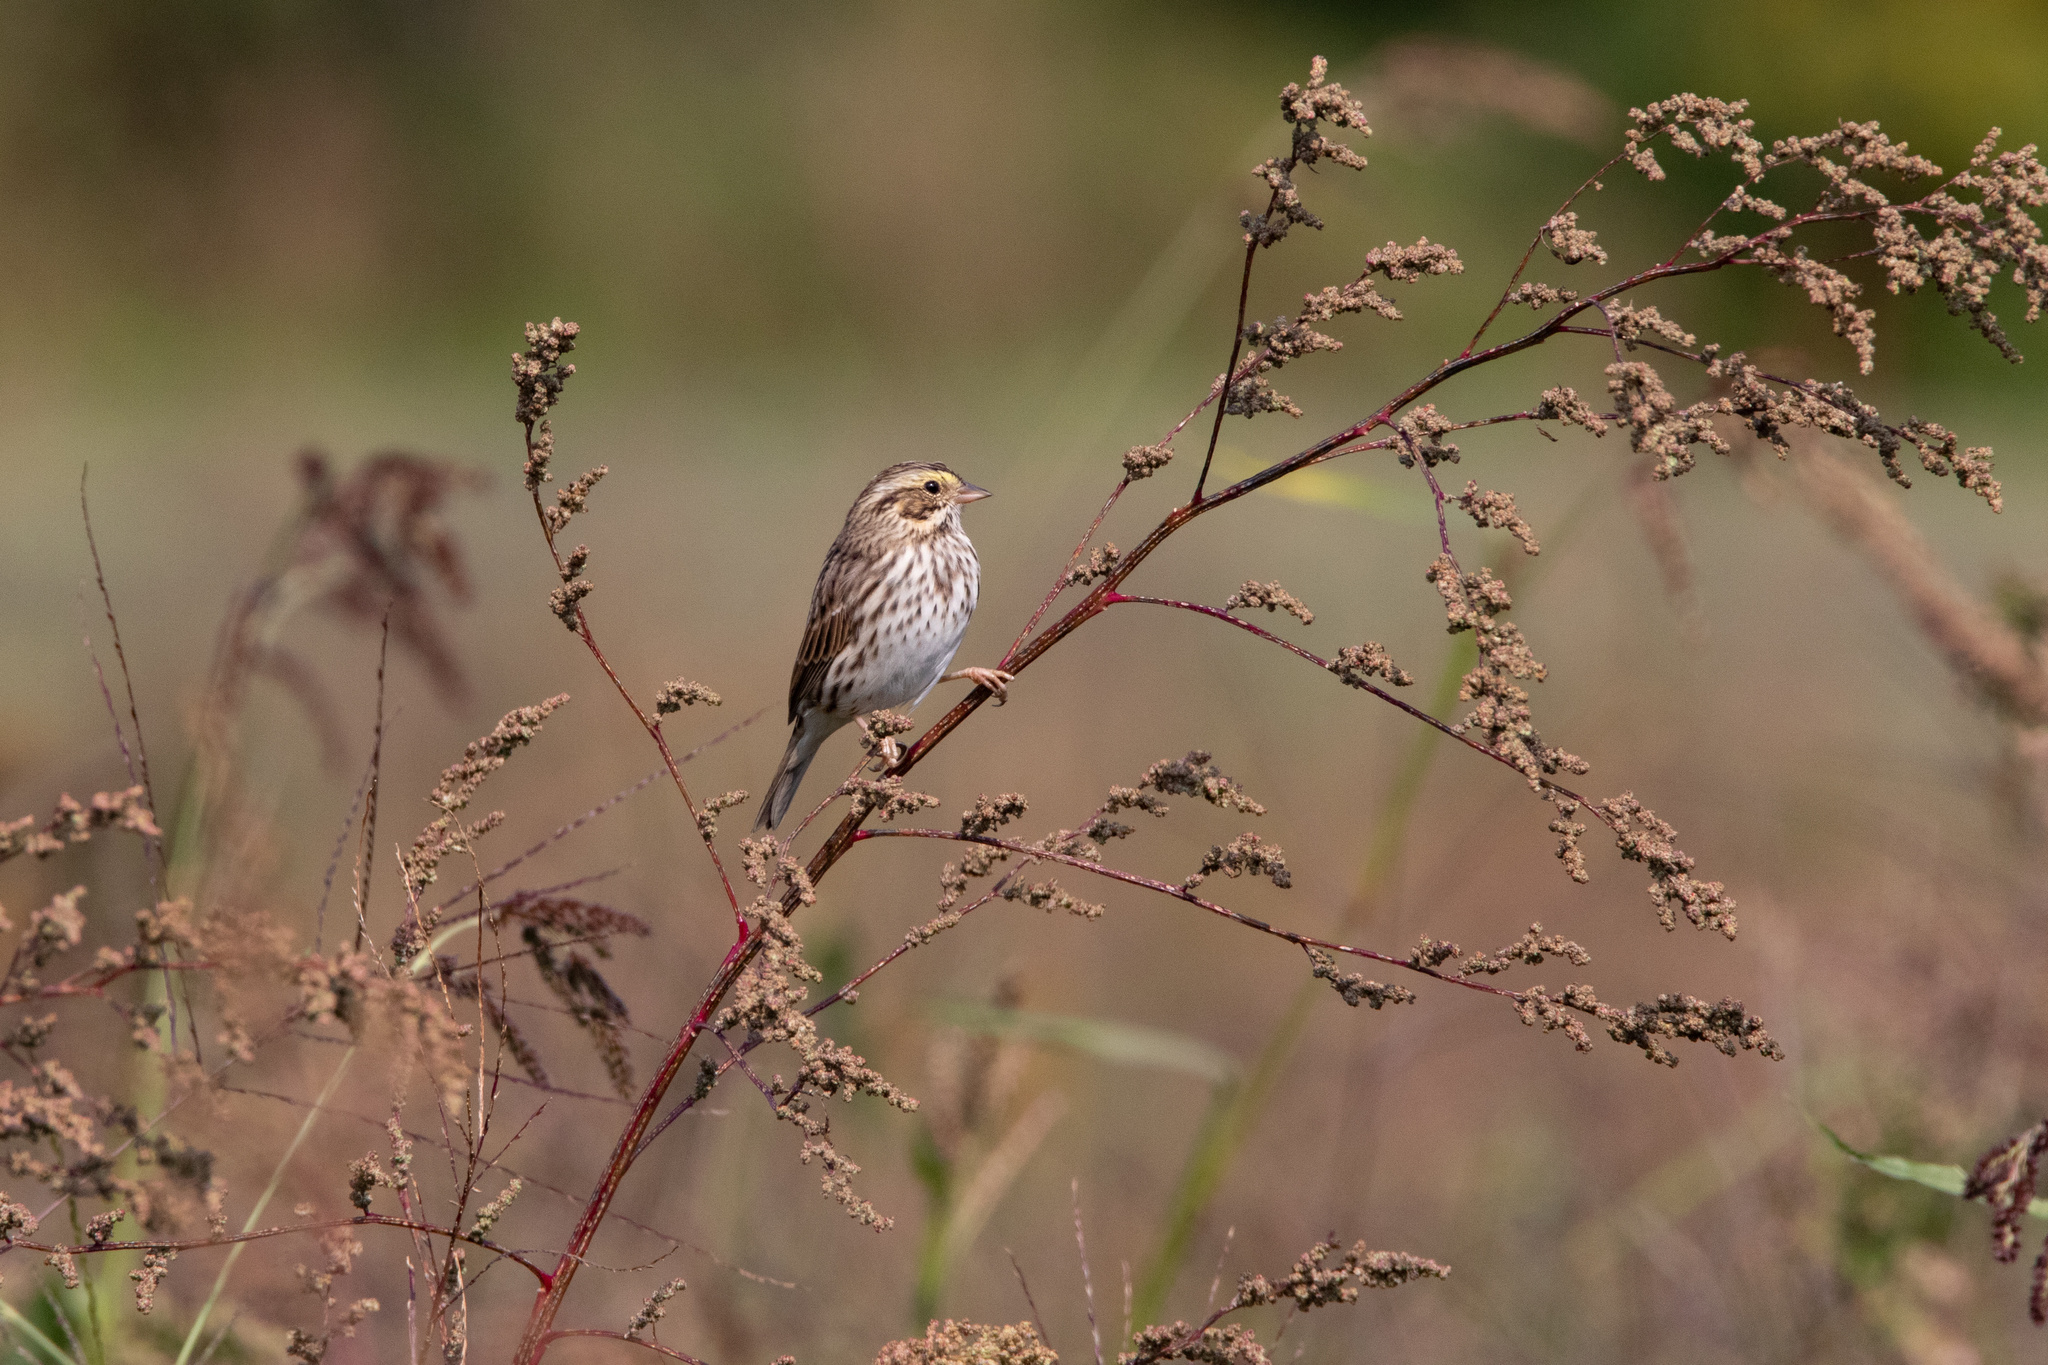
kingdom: Animalia
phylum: Chordata
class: Aves
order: Passeriformes
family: Passerellidae
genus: Passerculus
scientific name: Passerculus sandwichensis
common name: Savannah sparrow
